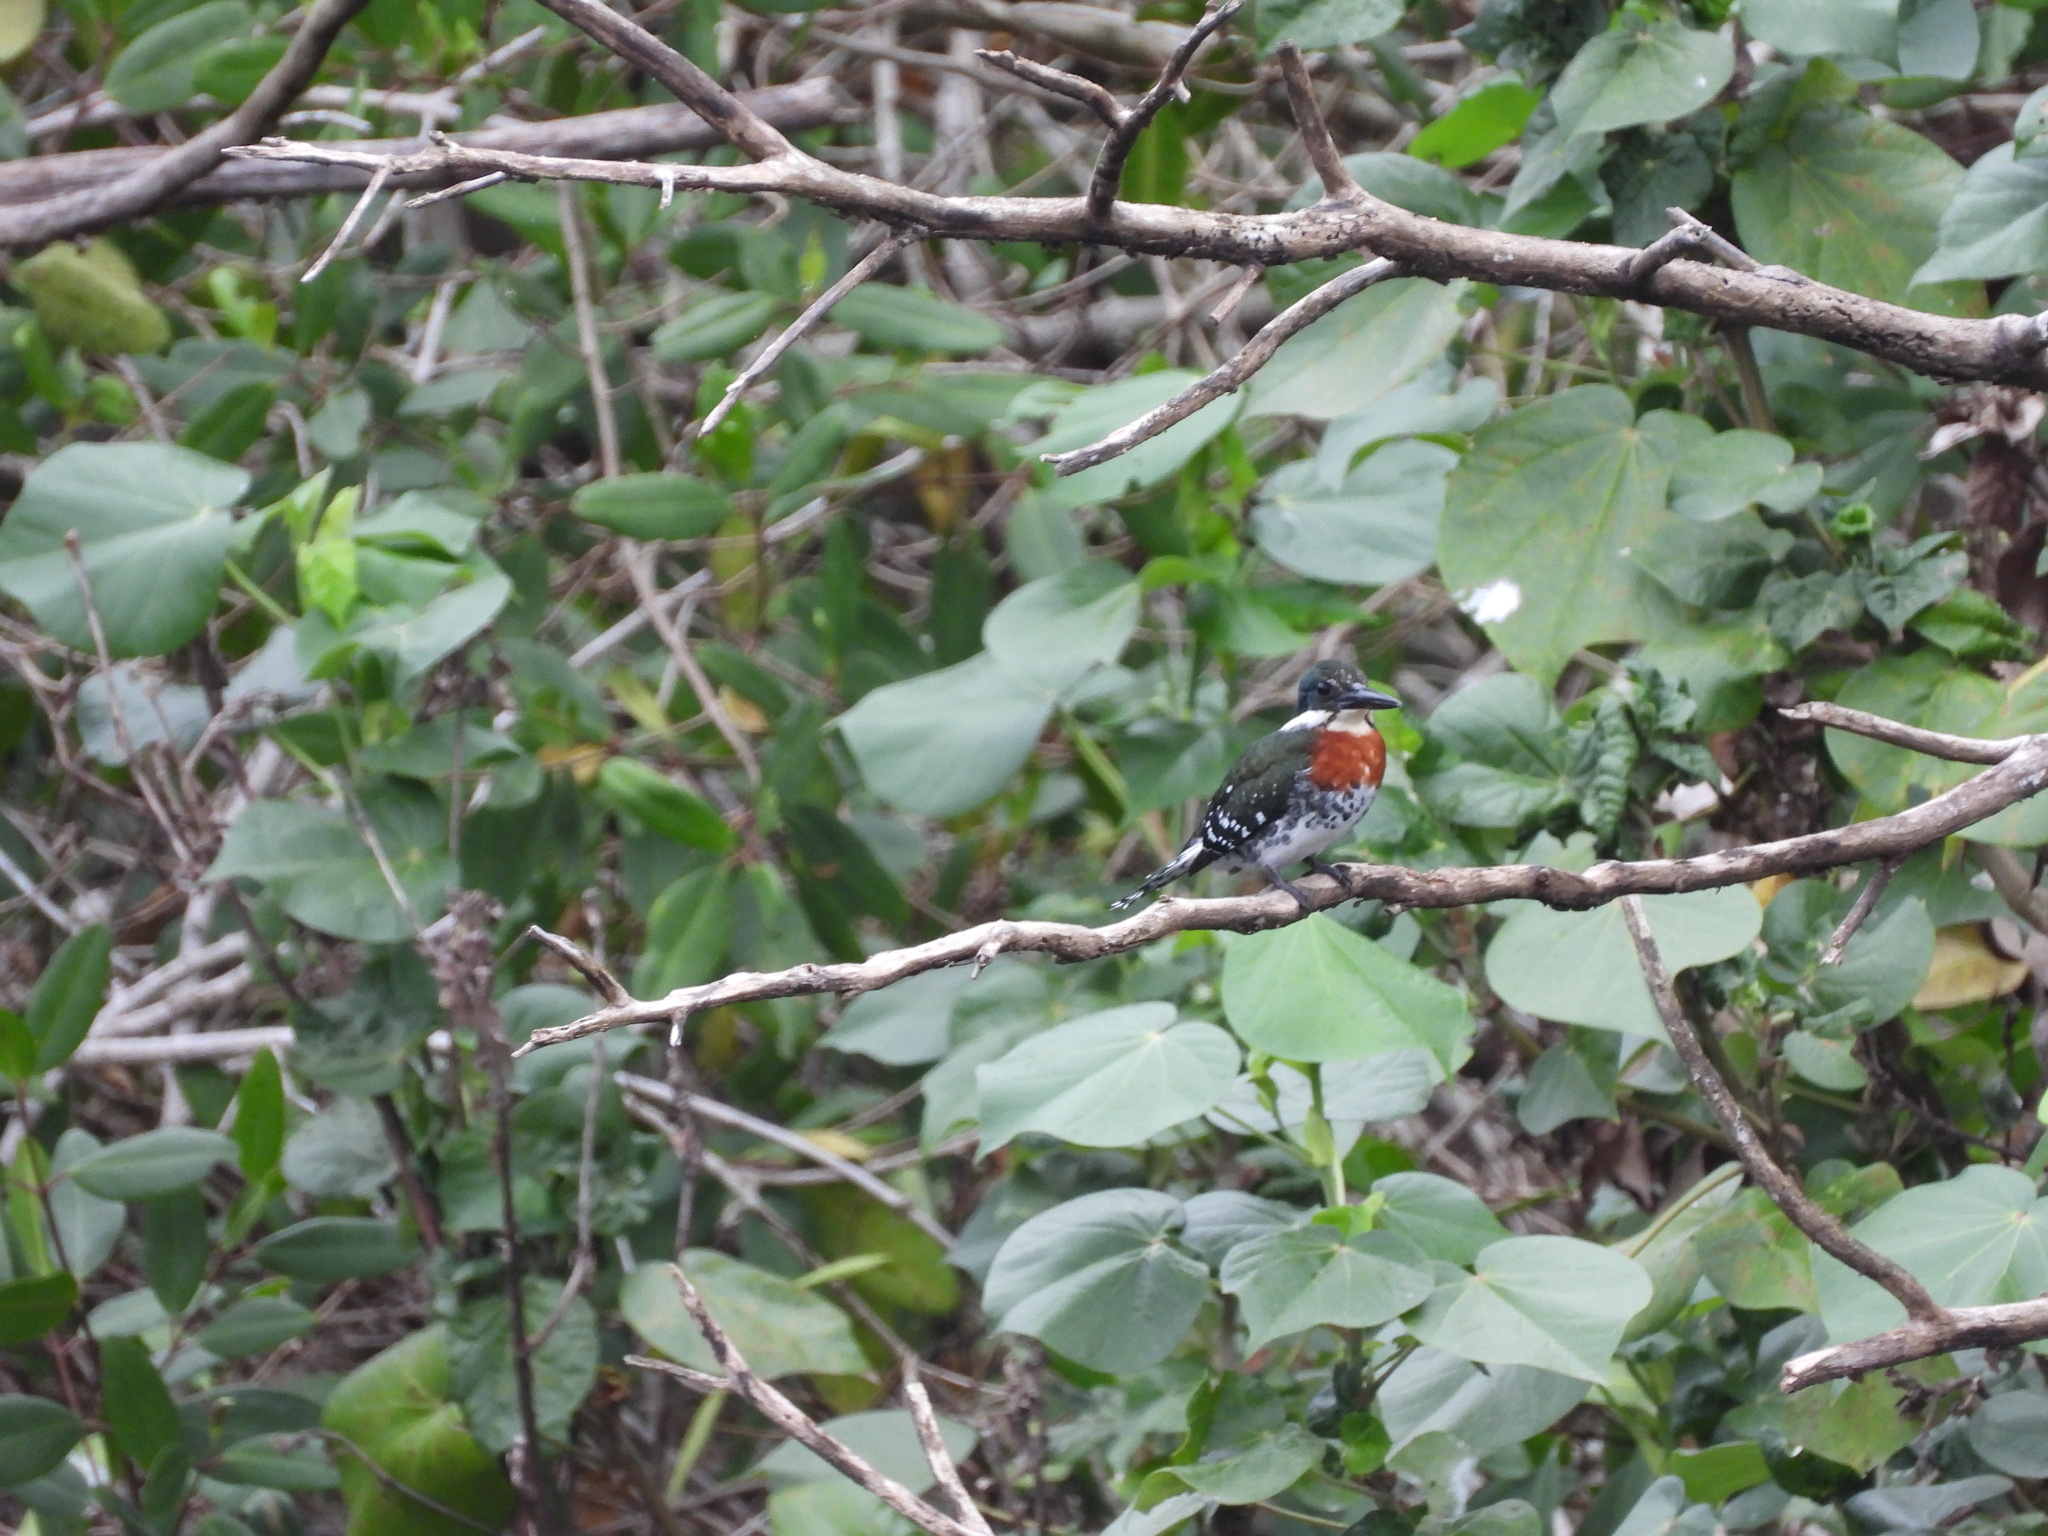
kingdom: Animalia
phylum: Chordata
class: Aves
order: Coraciiformes
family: Alcedinidae
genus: Chloroceryle
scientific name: Chloroceryle americana
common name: Green kingfisher
